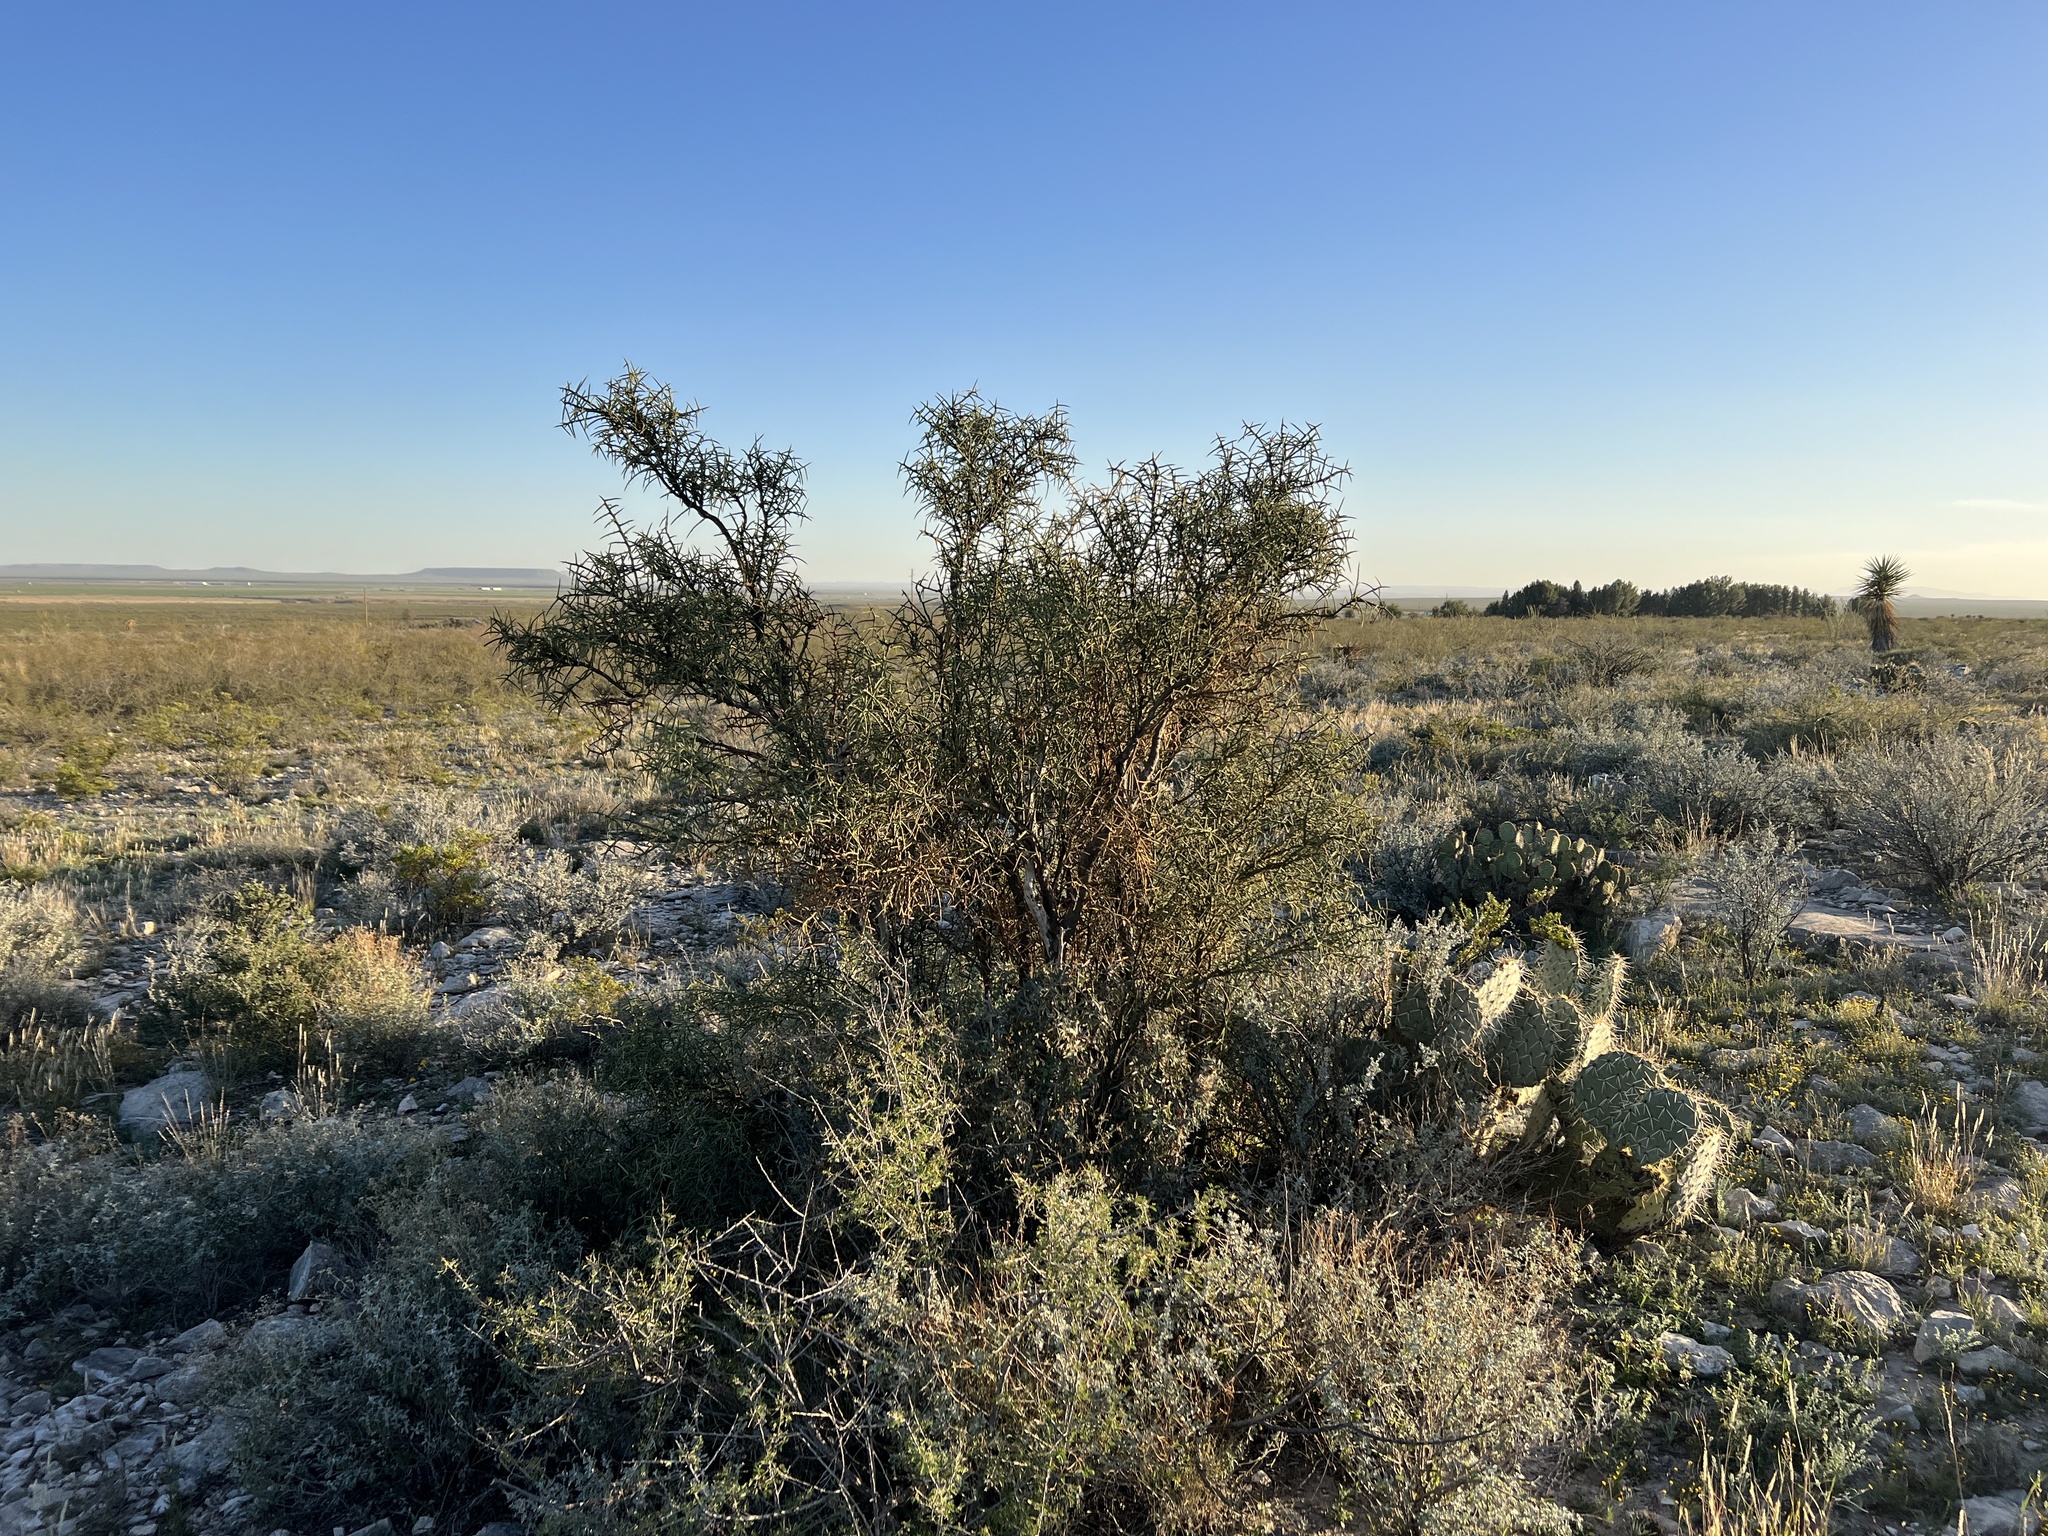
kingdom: Plantae
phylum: Tracheophyta
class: Magnoliopsida
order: Brassicales
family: Koeberliniaceae
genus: Koeberlinia
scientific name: Koeberlinia spinosa
